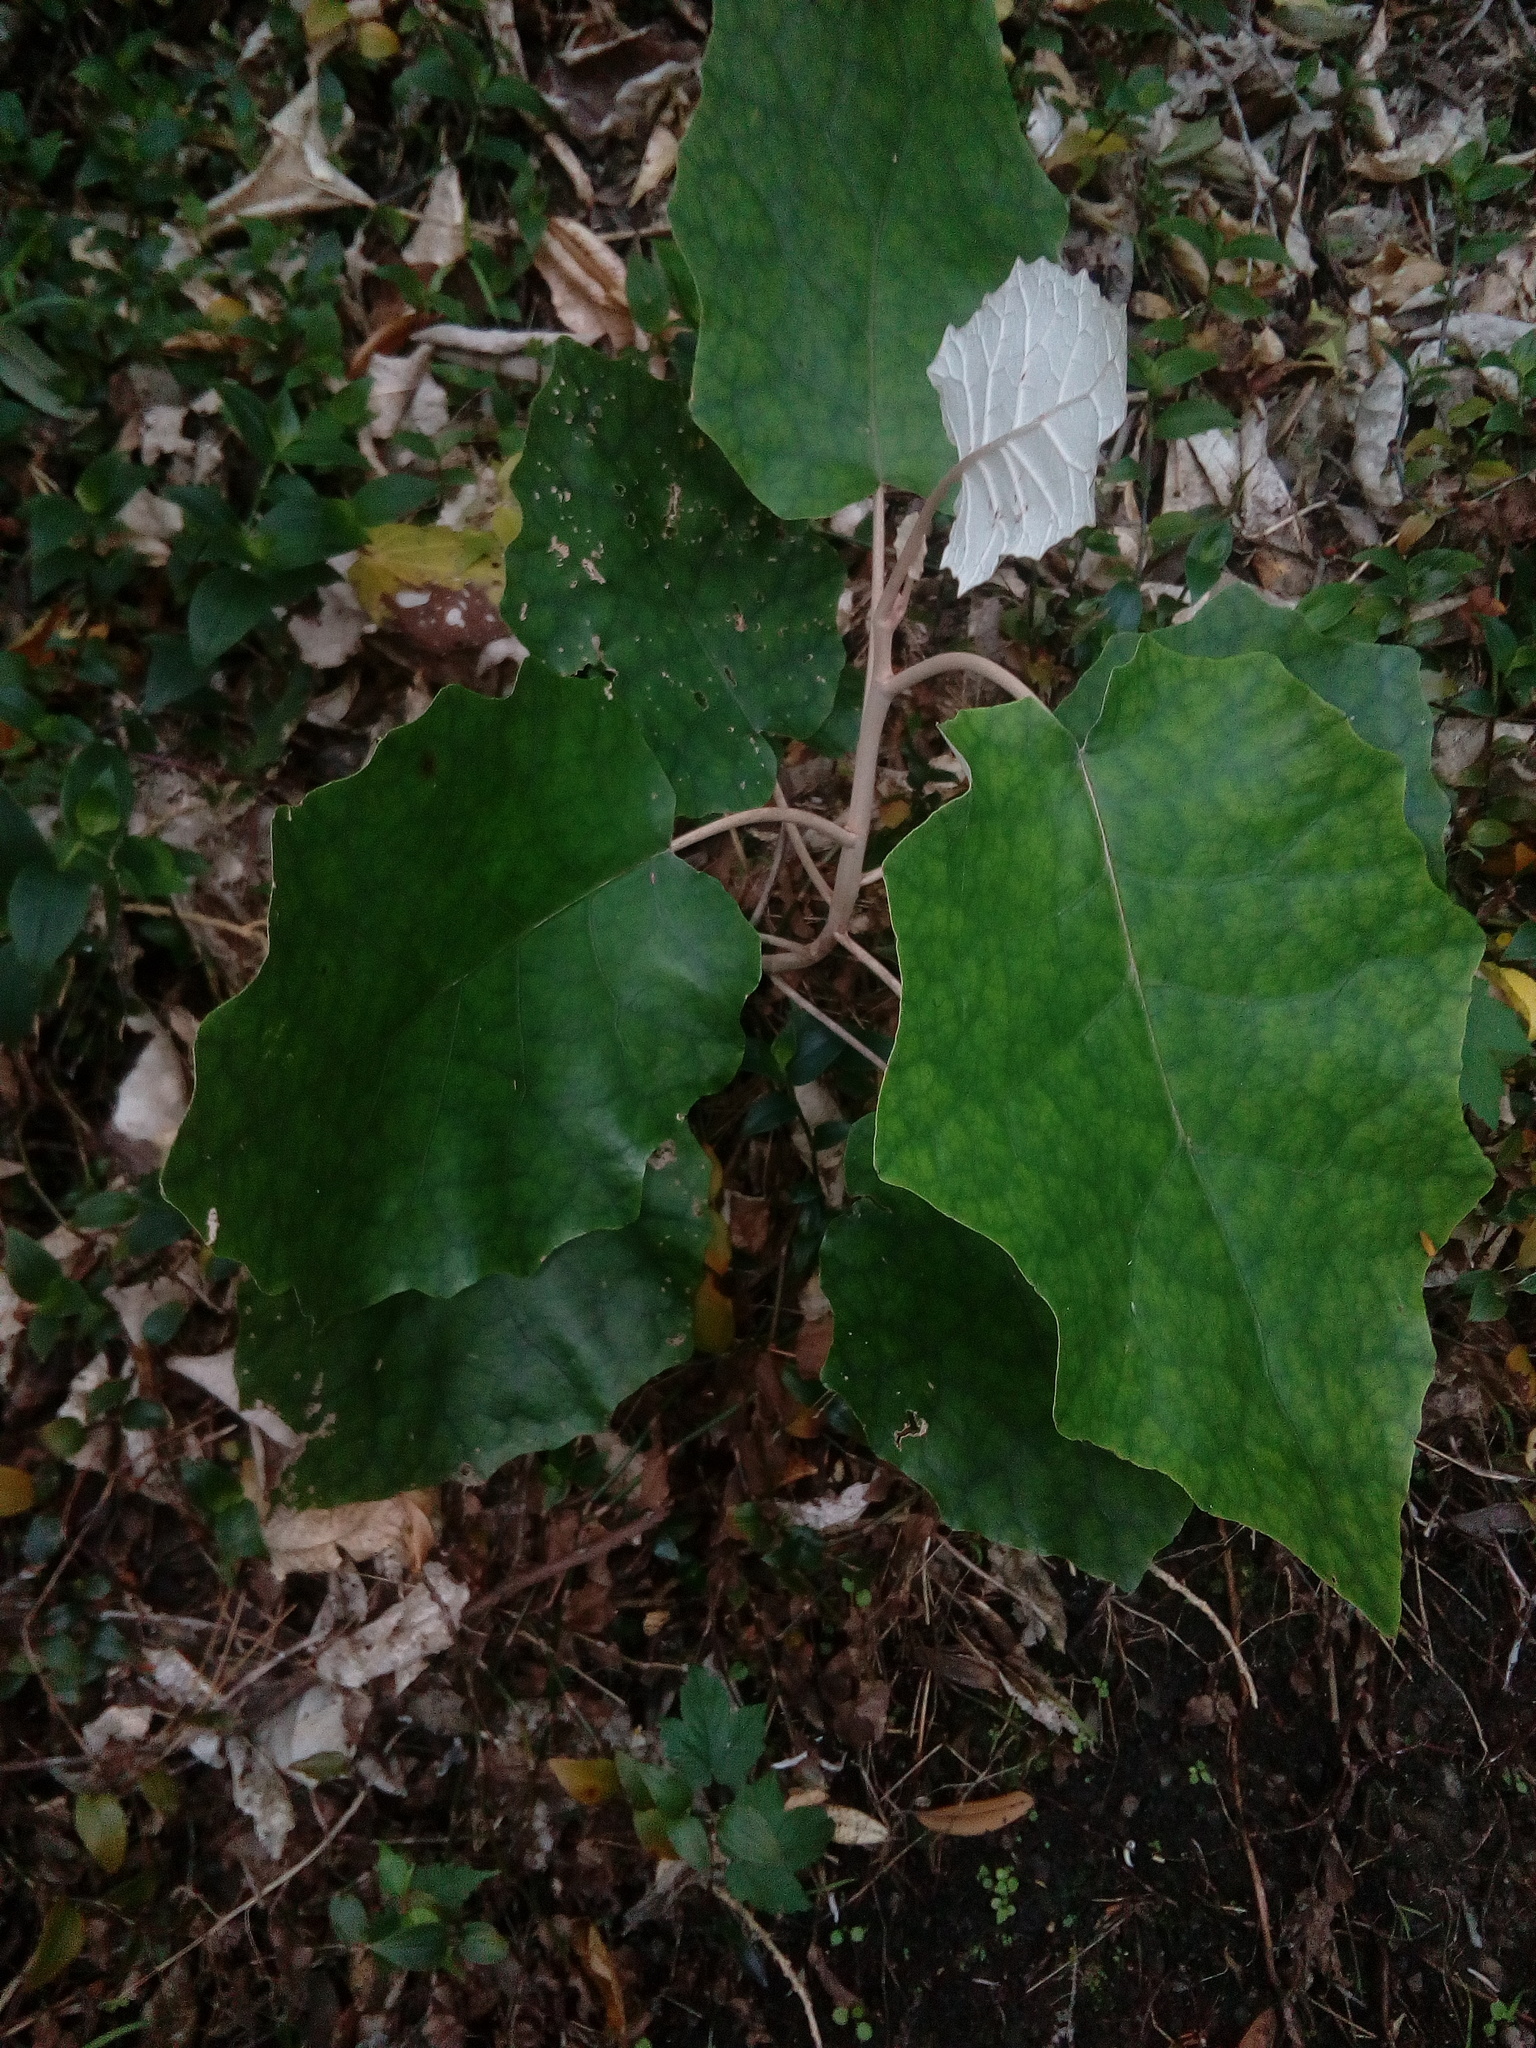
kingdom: Plantae
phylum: Tracheophyta
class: Magnoliopsida
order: Asterales
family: Asteraceae
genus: Brachyglottis
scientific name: Brachyglottis repanda
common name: Hedge ragwort
